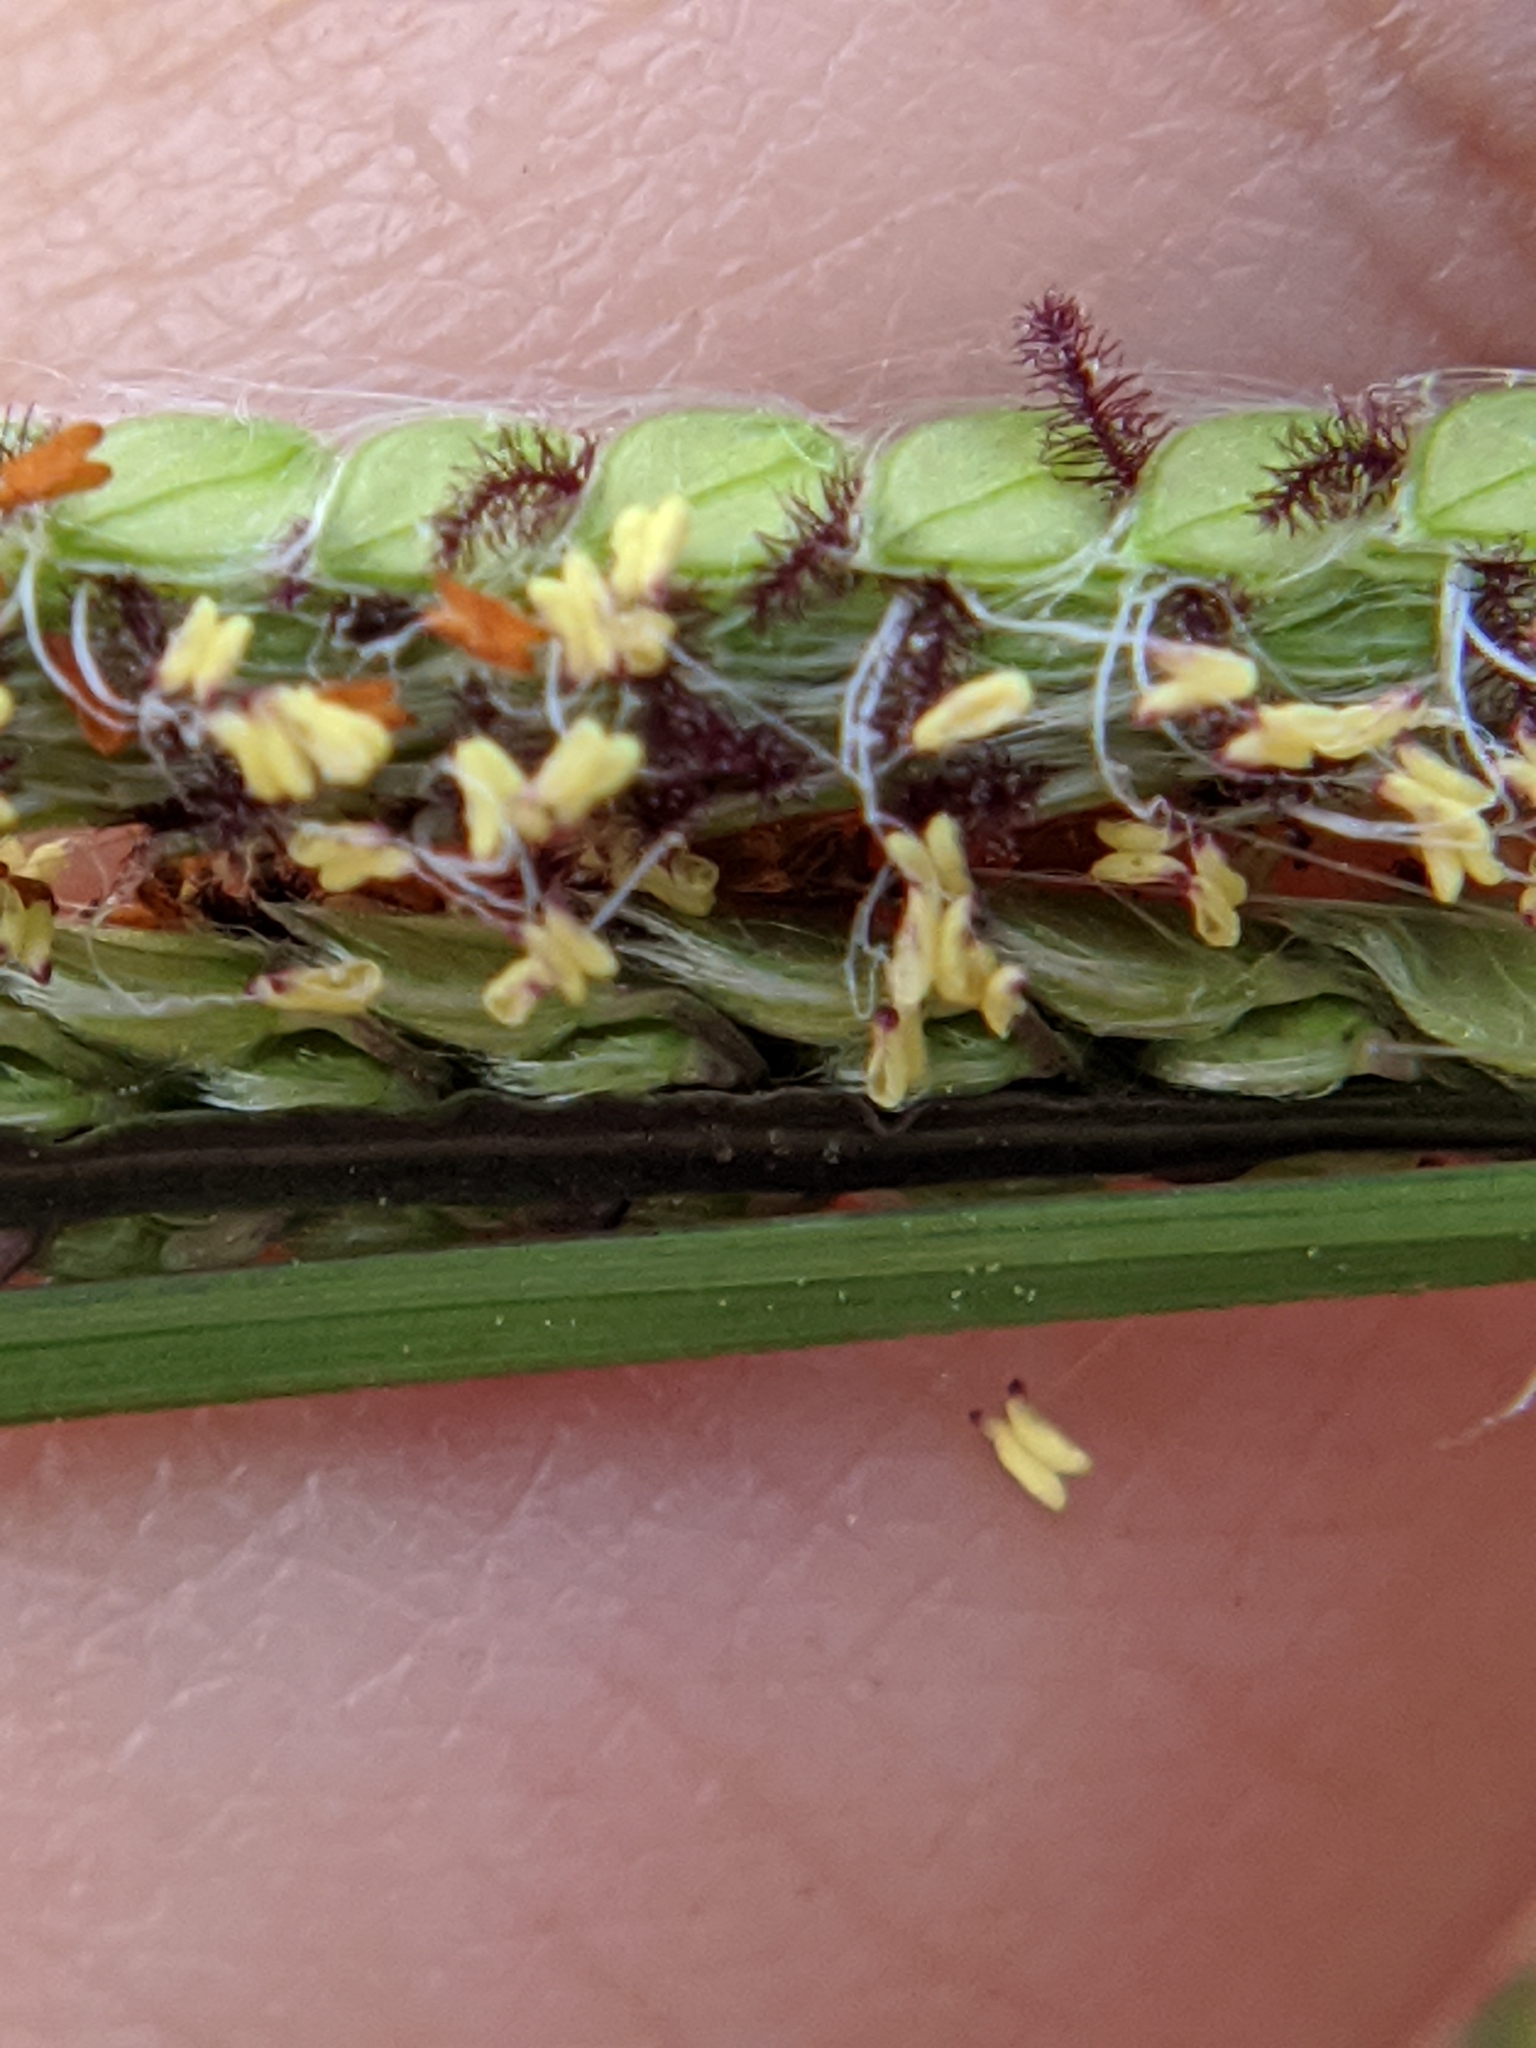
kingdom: Plantae
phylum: Tracheophyta
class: Liliopsida
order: Poales
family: Poaceae
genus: Paspalum
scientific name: Paspalum urvillei
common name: Vasey's grass
